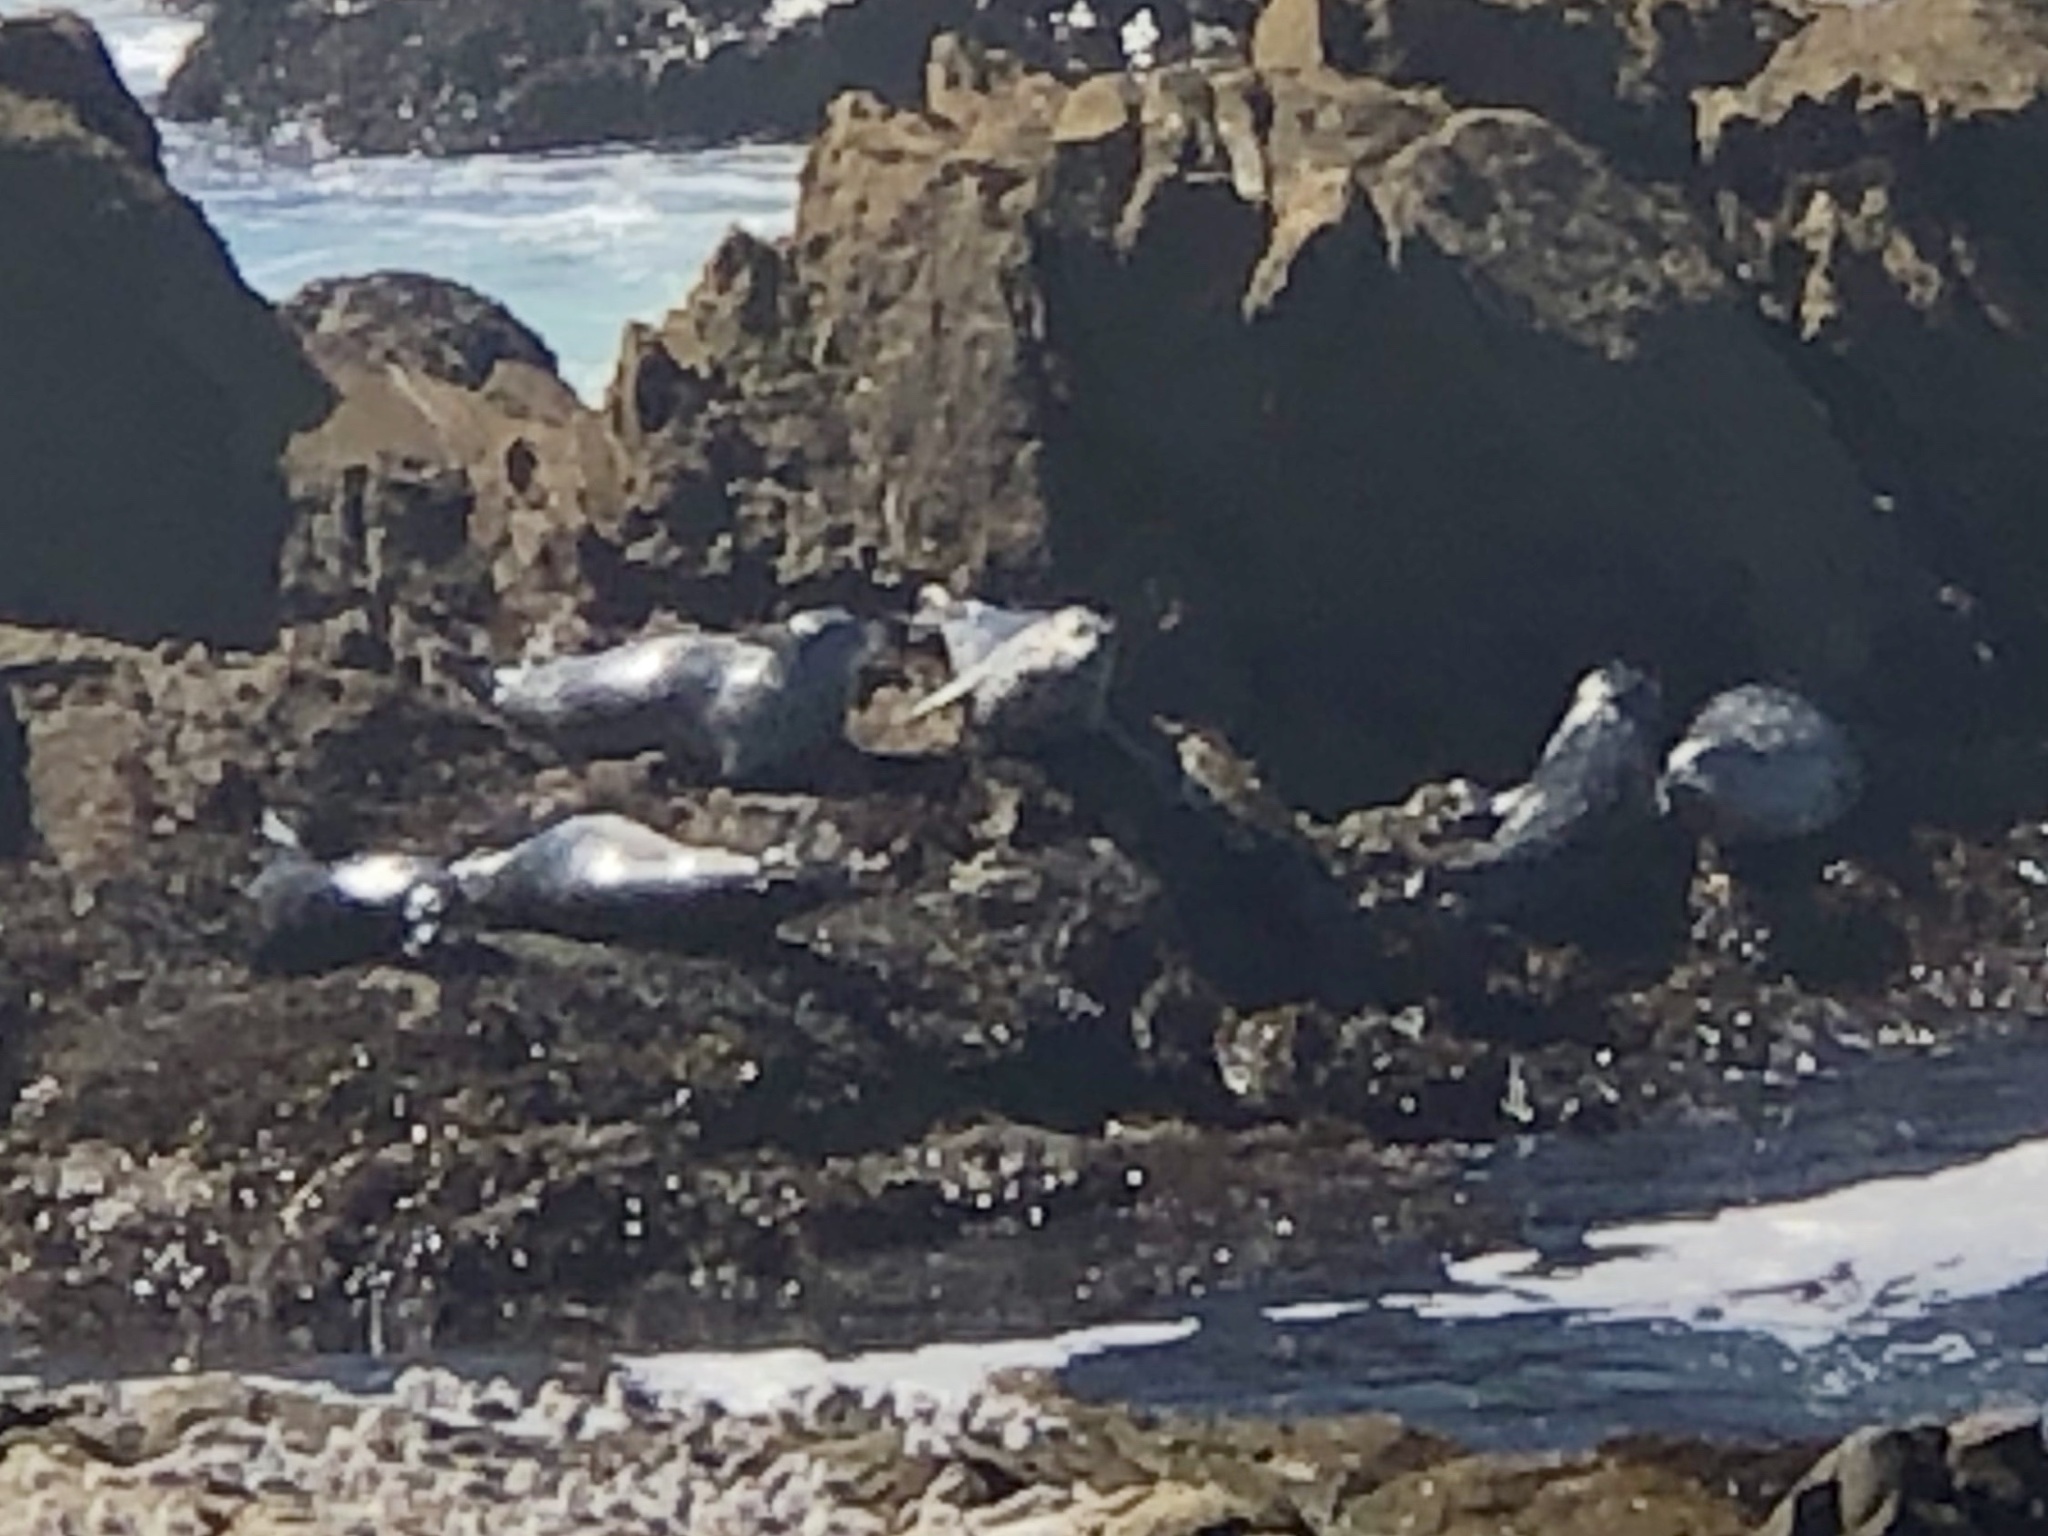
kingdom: Animalia
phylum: Chordata
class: Mammalia
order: Carnivora
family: Phocidae
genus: Phoca
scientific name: Phoca vitulina
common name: Harbor seal
